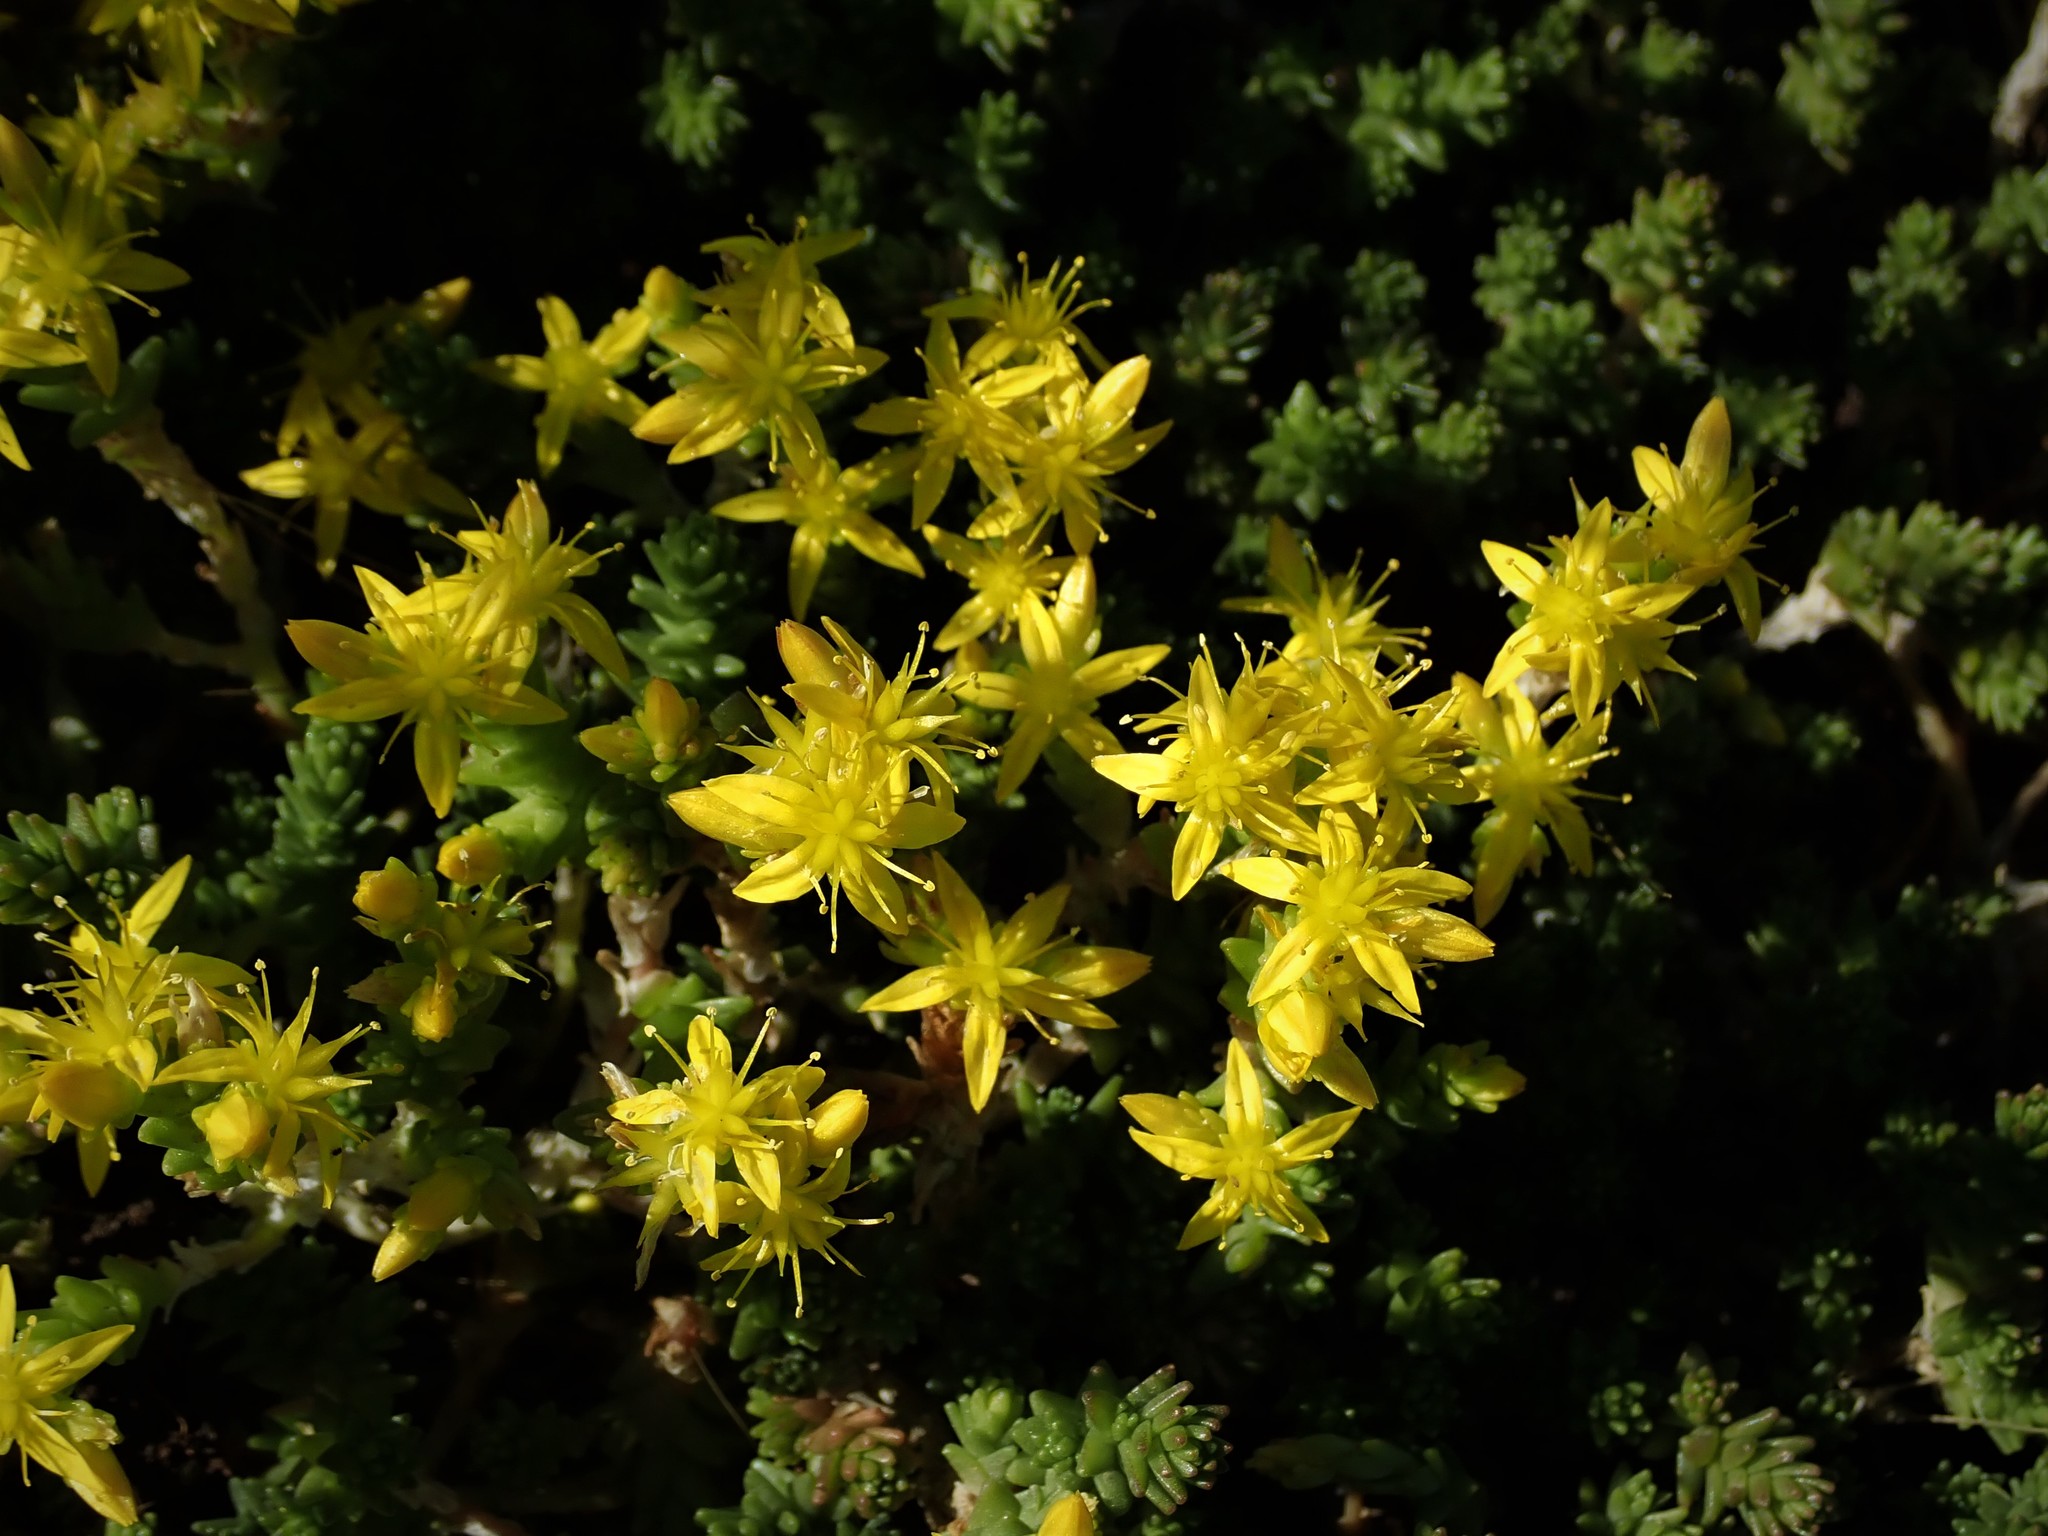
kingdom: Plantae
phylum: Tracheophyta
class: Magnoliopsida
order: Saxifragales
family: Crassulaceae
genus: Sedum
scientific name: Sedum acre
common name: Biting stonecrop
